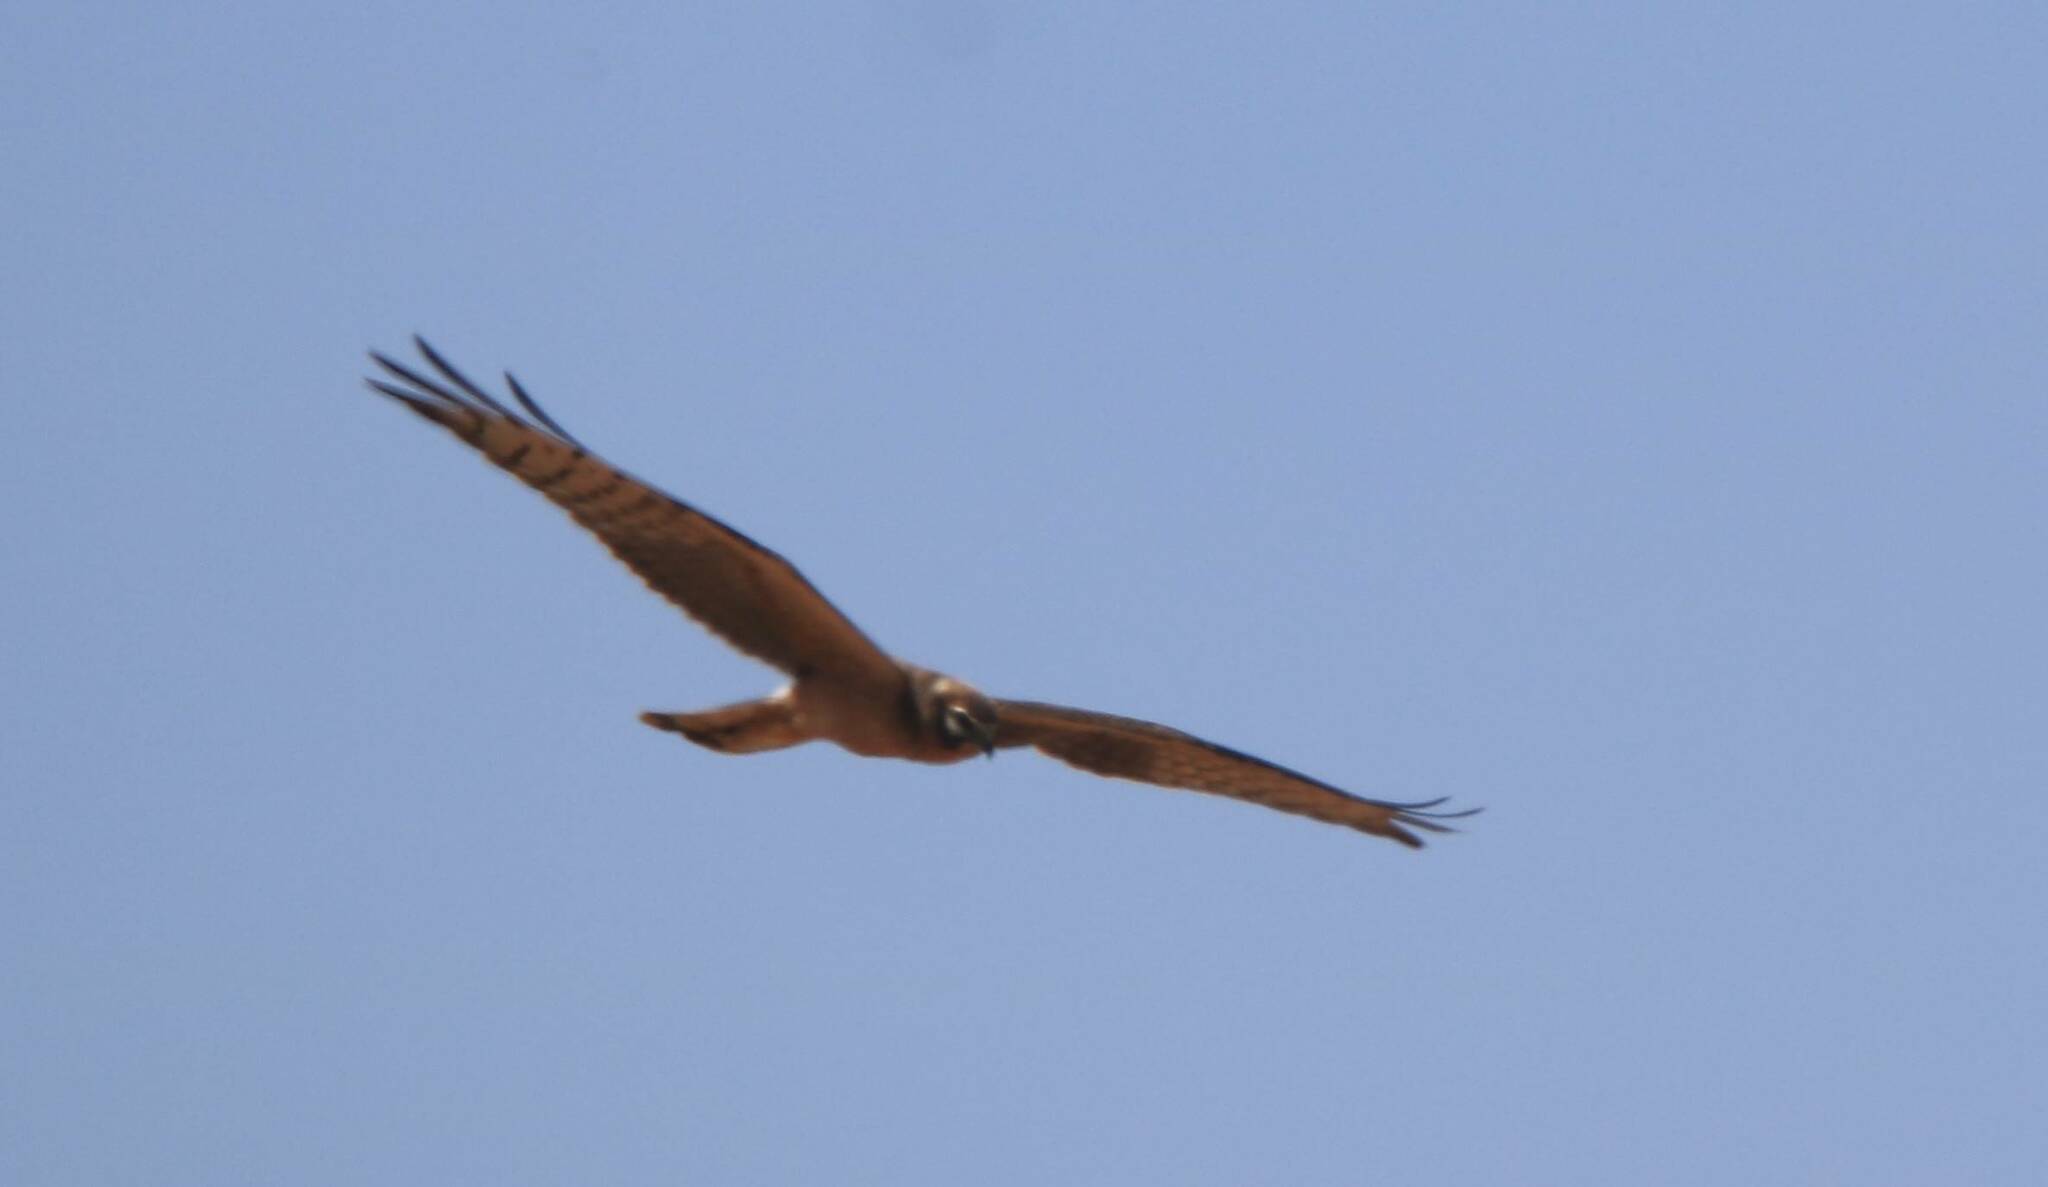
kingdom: Animalia
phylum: Chordata
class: Aves
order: Accipitriformes
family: Accipitridae
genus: Circus
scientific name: Circus pygargus
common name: Montagu's harrier
